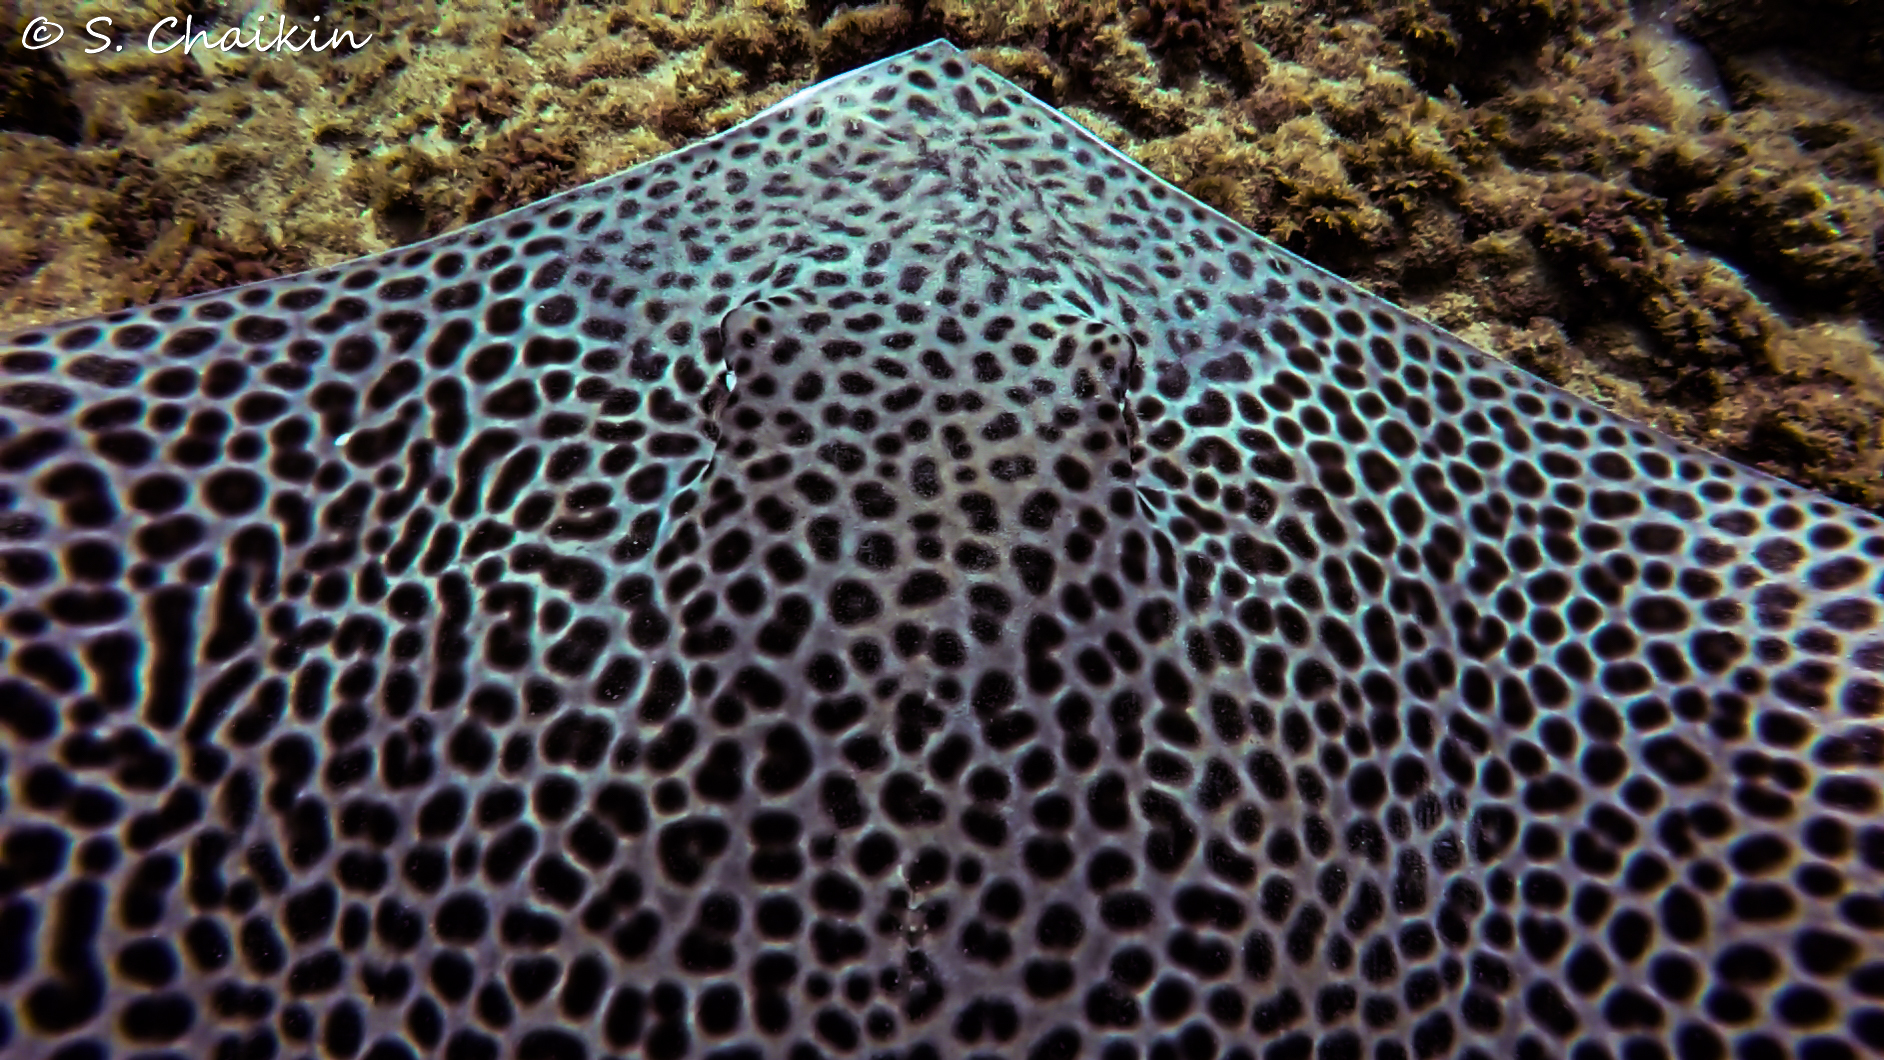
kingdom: Animalia
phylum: Chordata
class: Elasmobranchii
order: Myliobatiformes
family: Dasyatidae
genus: Himantura
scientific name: Himantura uarnak
